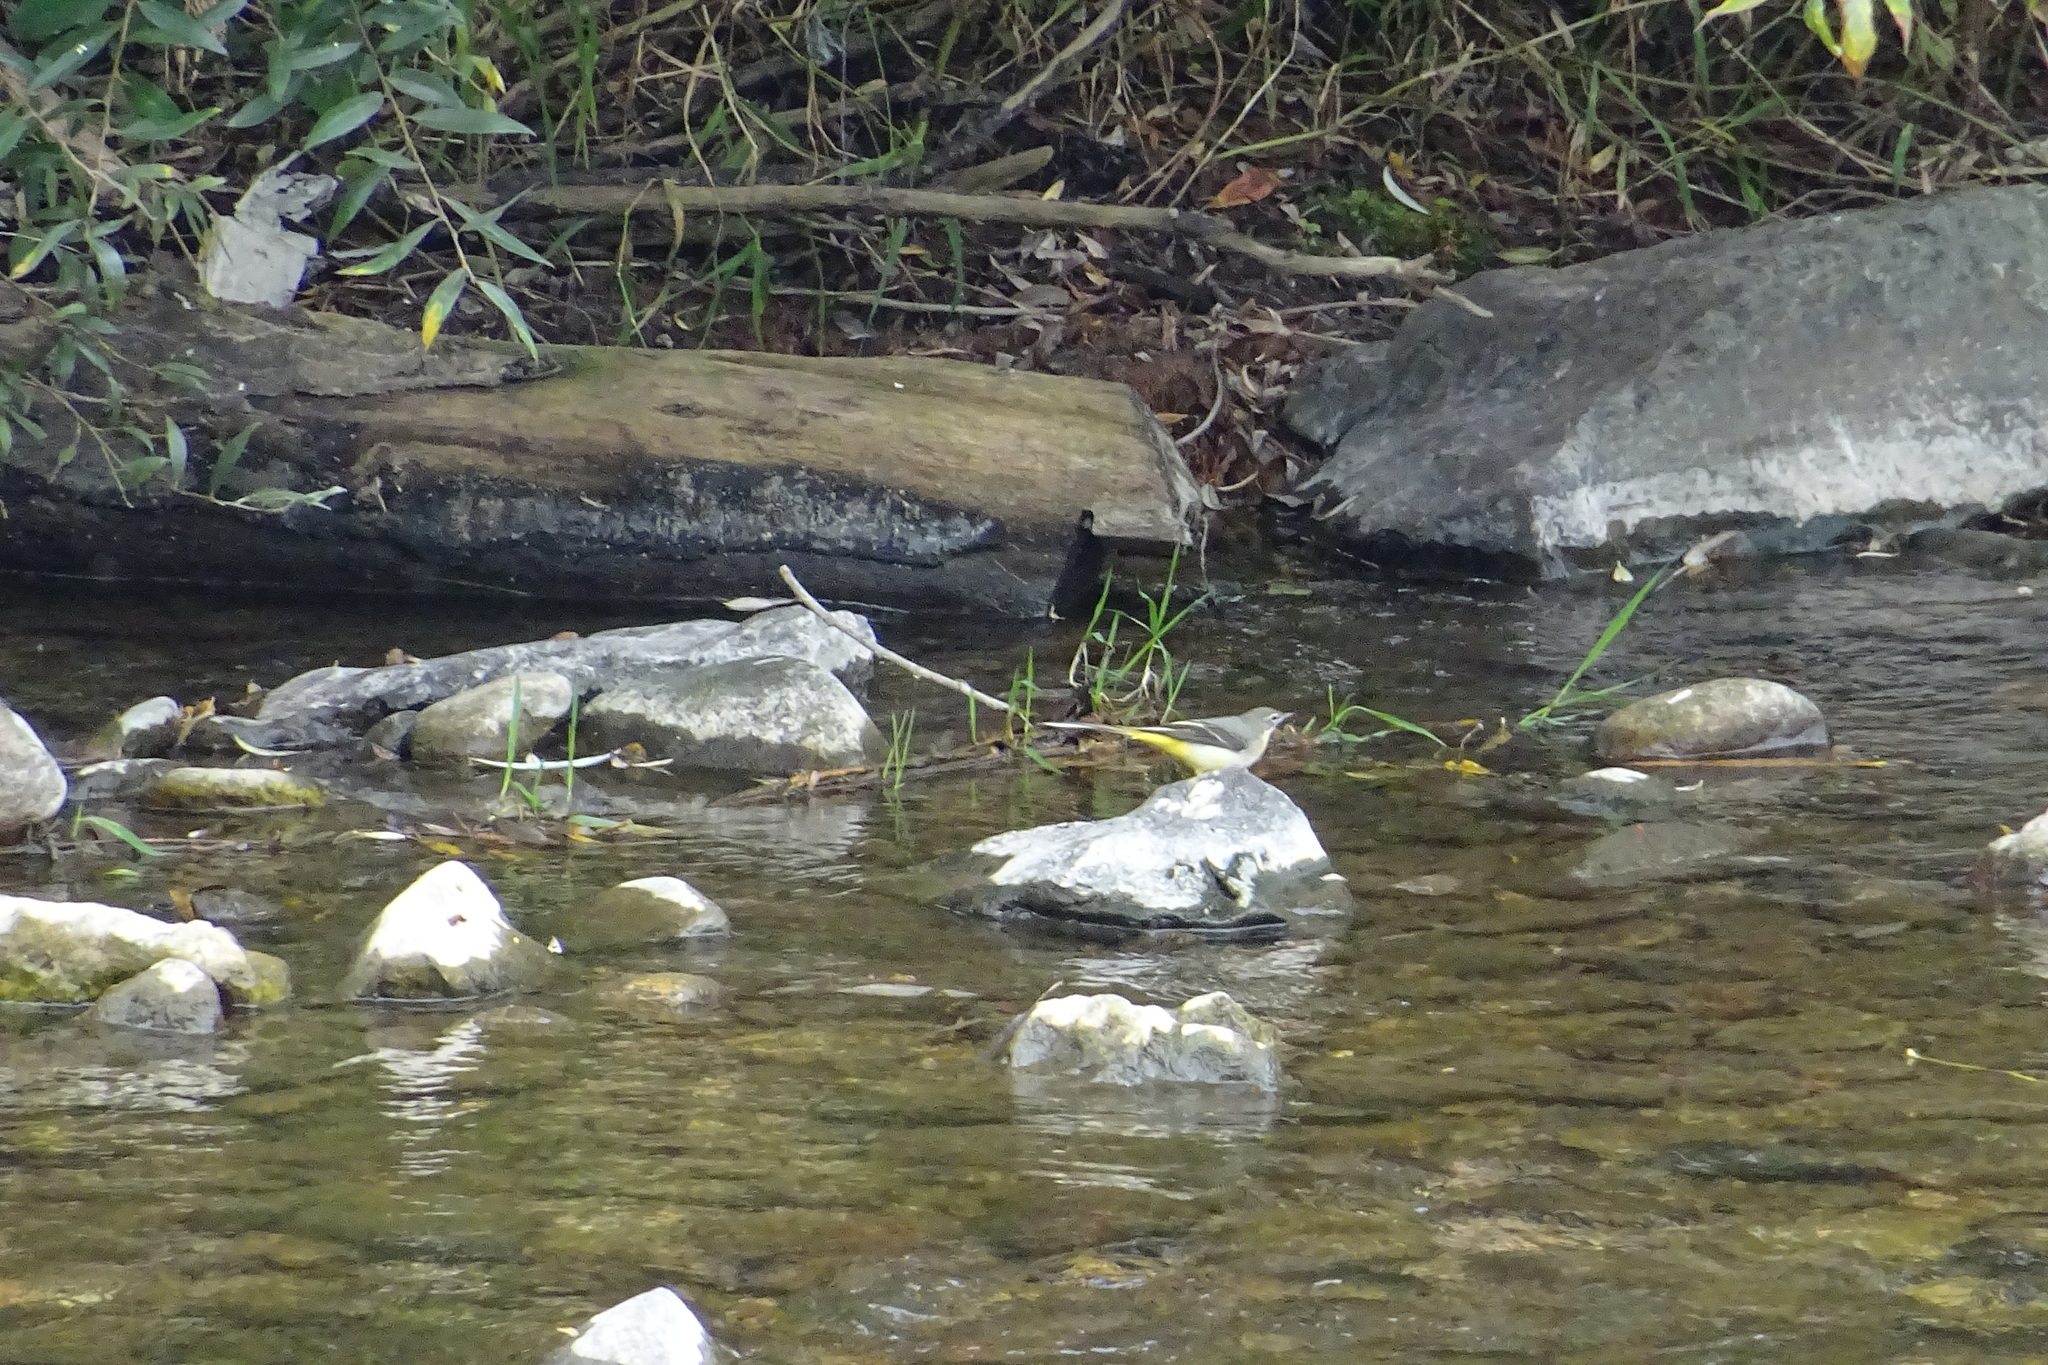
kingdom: Animalia
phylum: Chordata
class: Aves
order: Passeriformes
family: Motacillidae
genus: Motacilla
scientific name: Motacilla cinerea
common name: Grey wagtail
